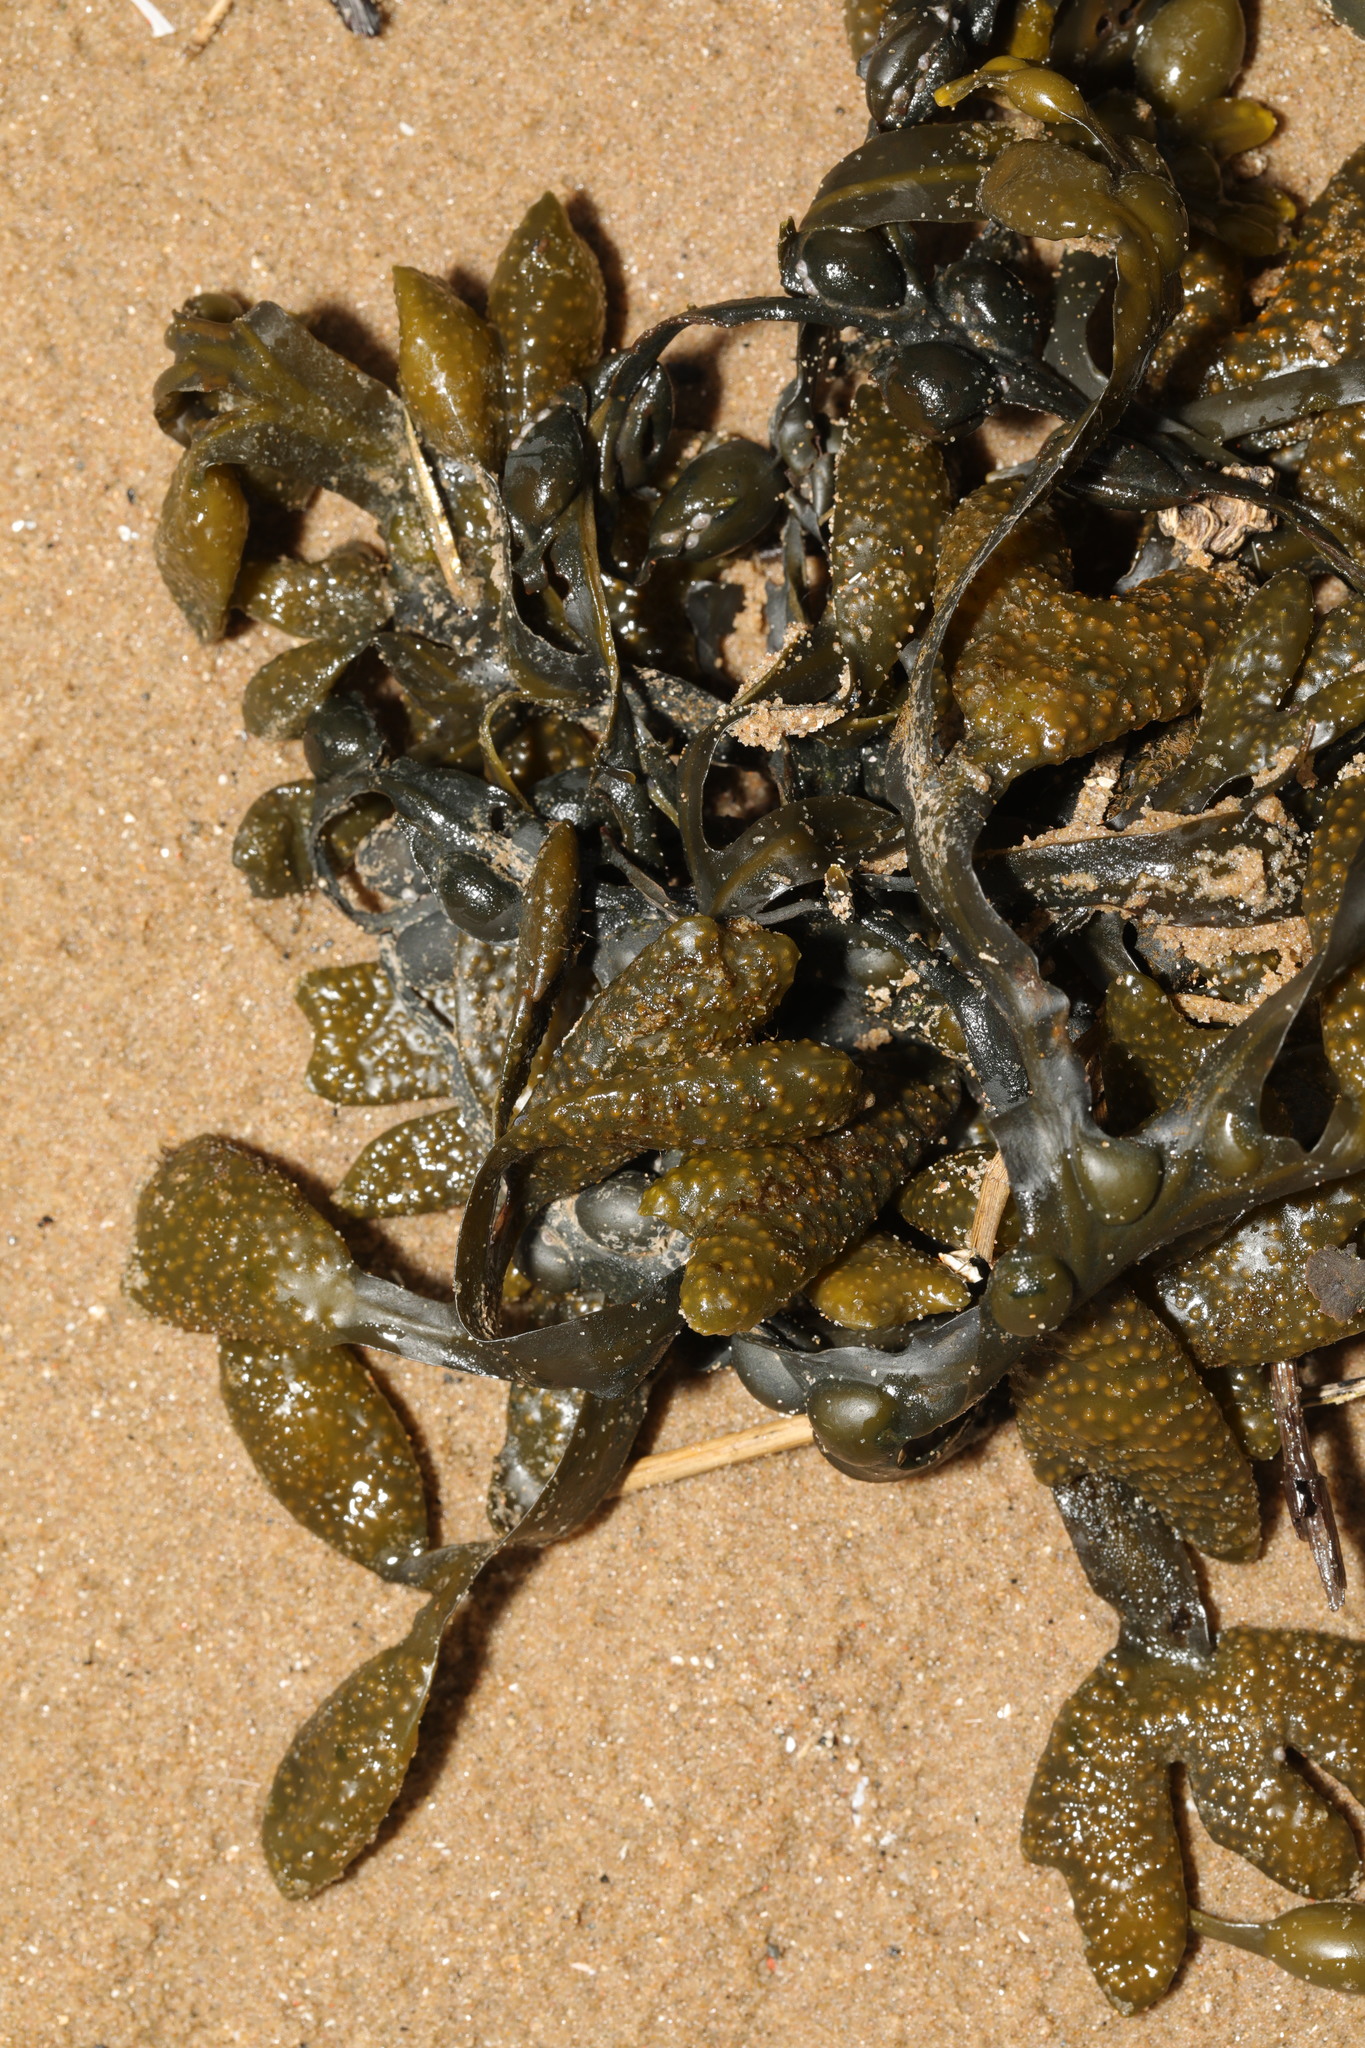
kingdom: Chromista
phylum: Ochrophyta
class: Phaeophyceae
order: Fucales
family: Fucaceae
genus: Fucus
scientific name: Fucus vesiculosus
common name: Bladder wrack
